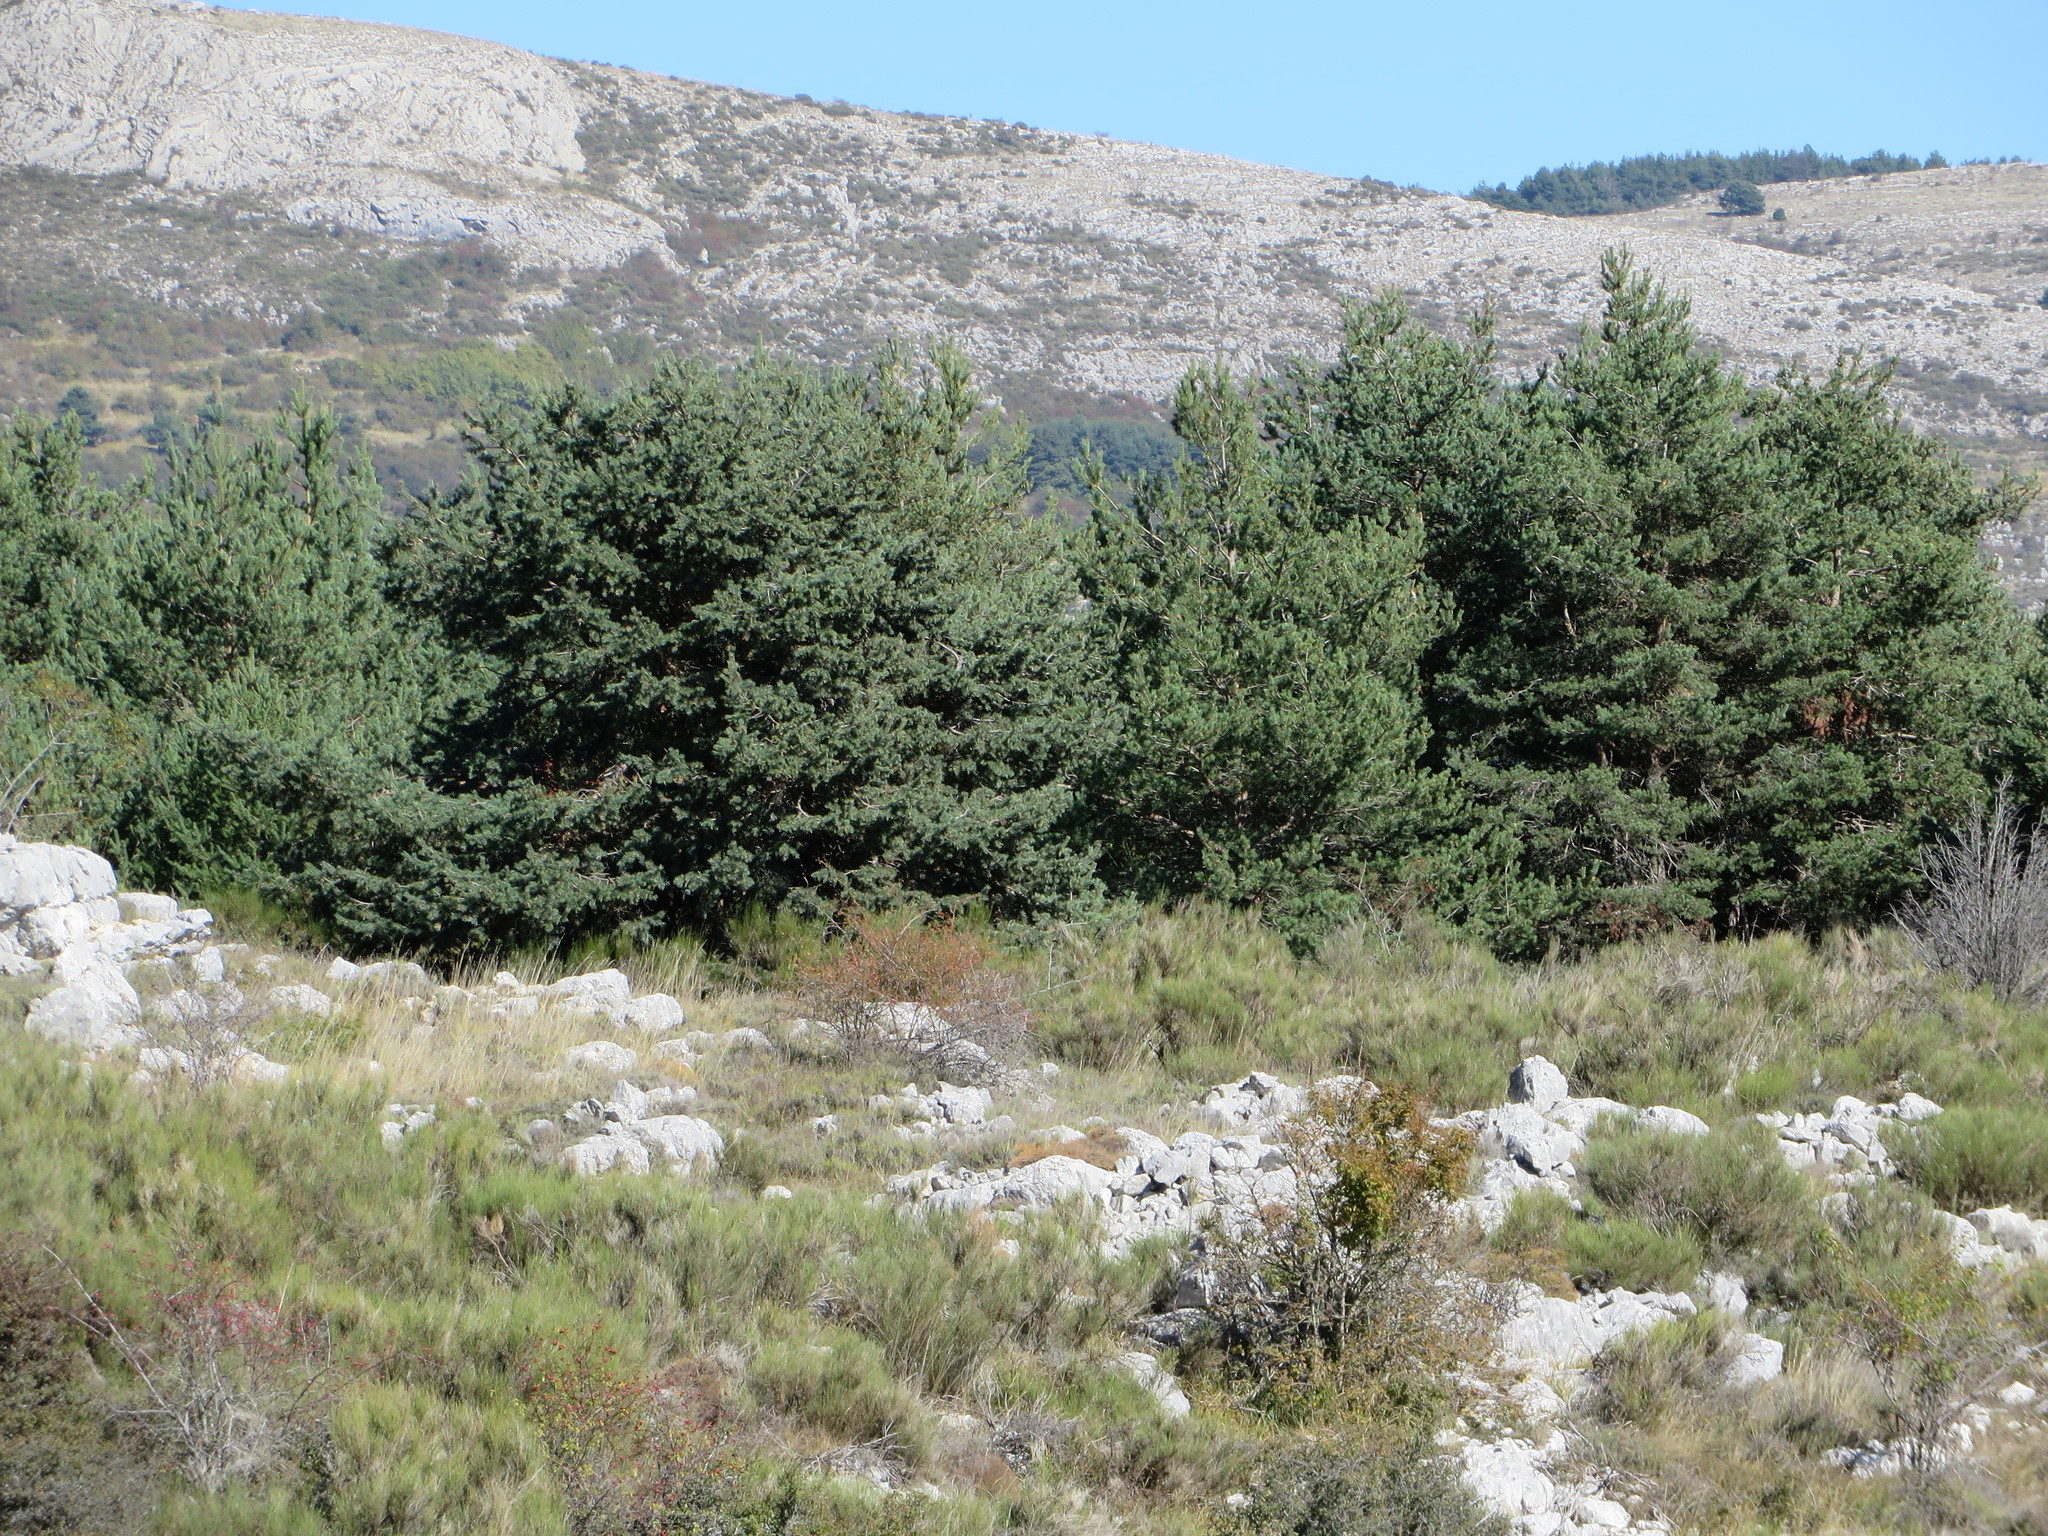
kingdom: Plantae
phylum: Tracheophyta
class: Pinopsida
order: Pinales
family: Pinaceae
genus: Pinus
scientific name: Pinus sylvestris
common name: Scots pine
